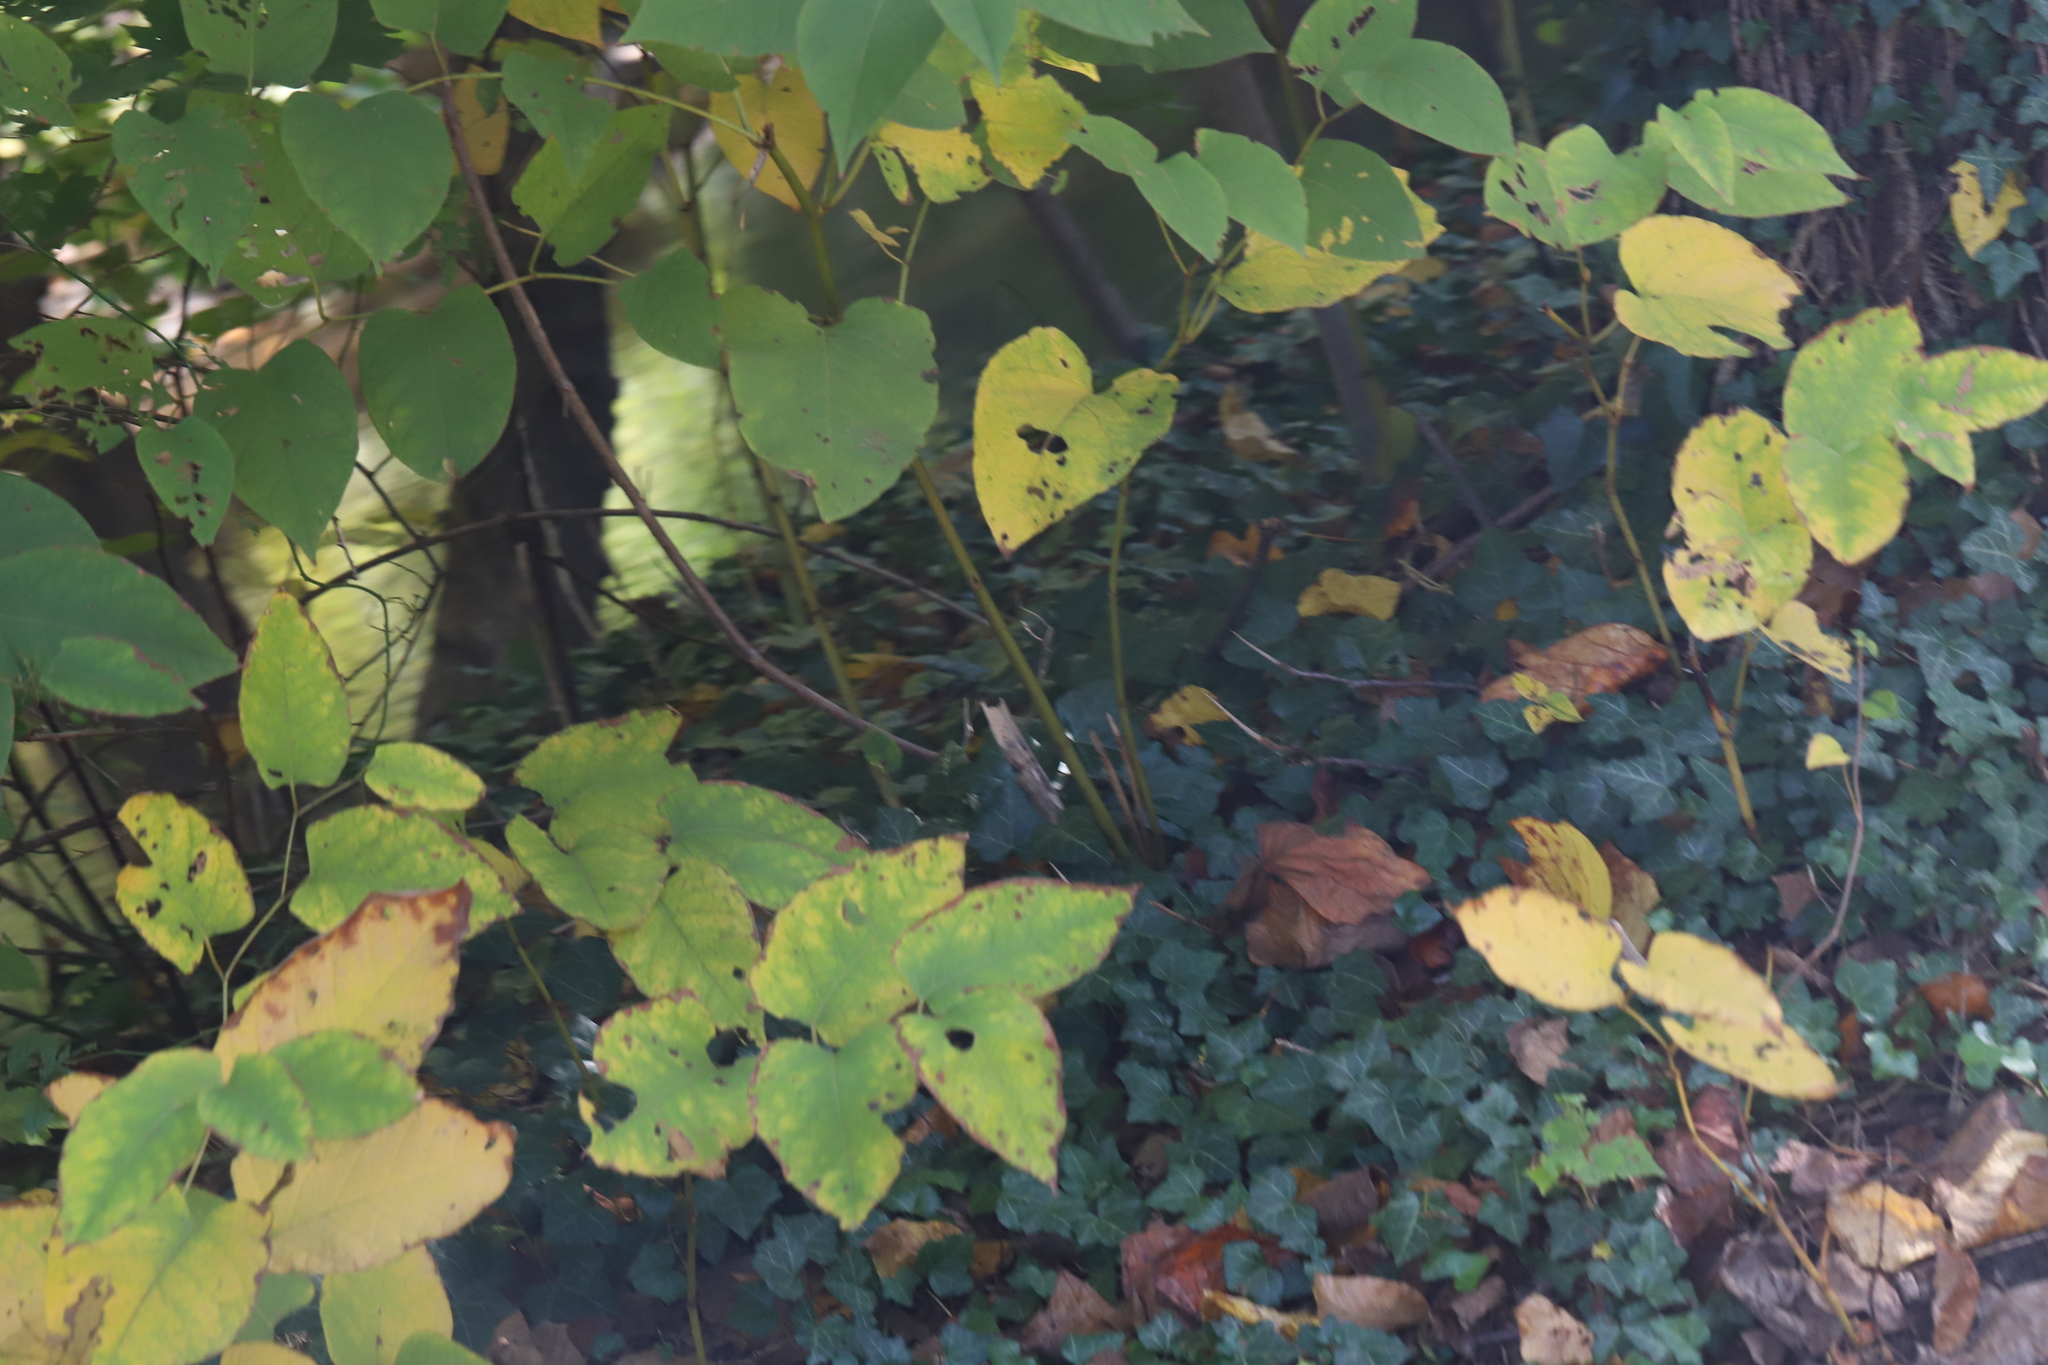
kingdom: Plantae
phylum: Tracheophyta
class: Magnoliopsida
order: Caryophyllales
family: Polygonaceae
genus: Reynoutria
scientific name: Reynoutria japonica
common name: Japanese knotweed
